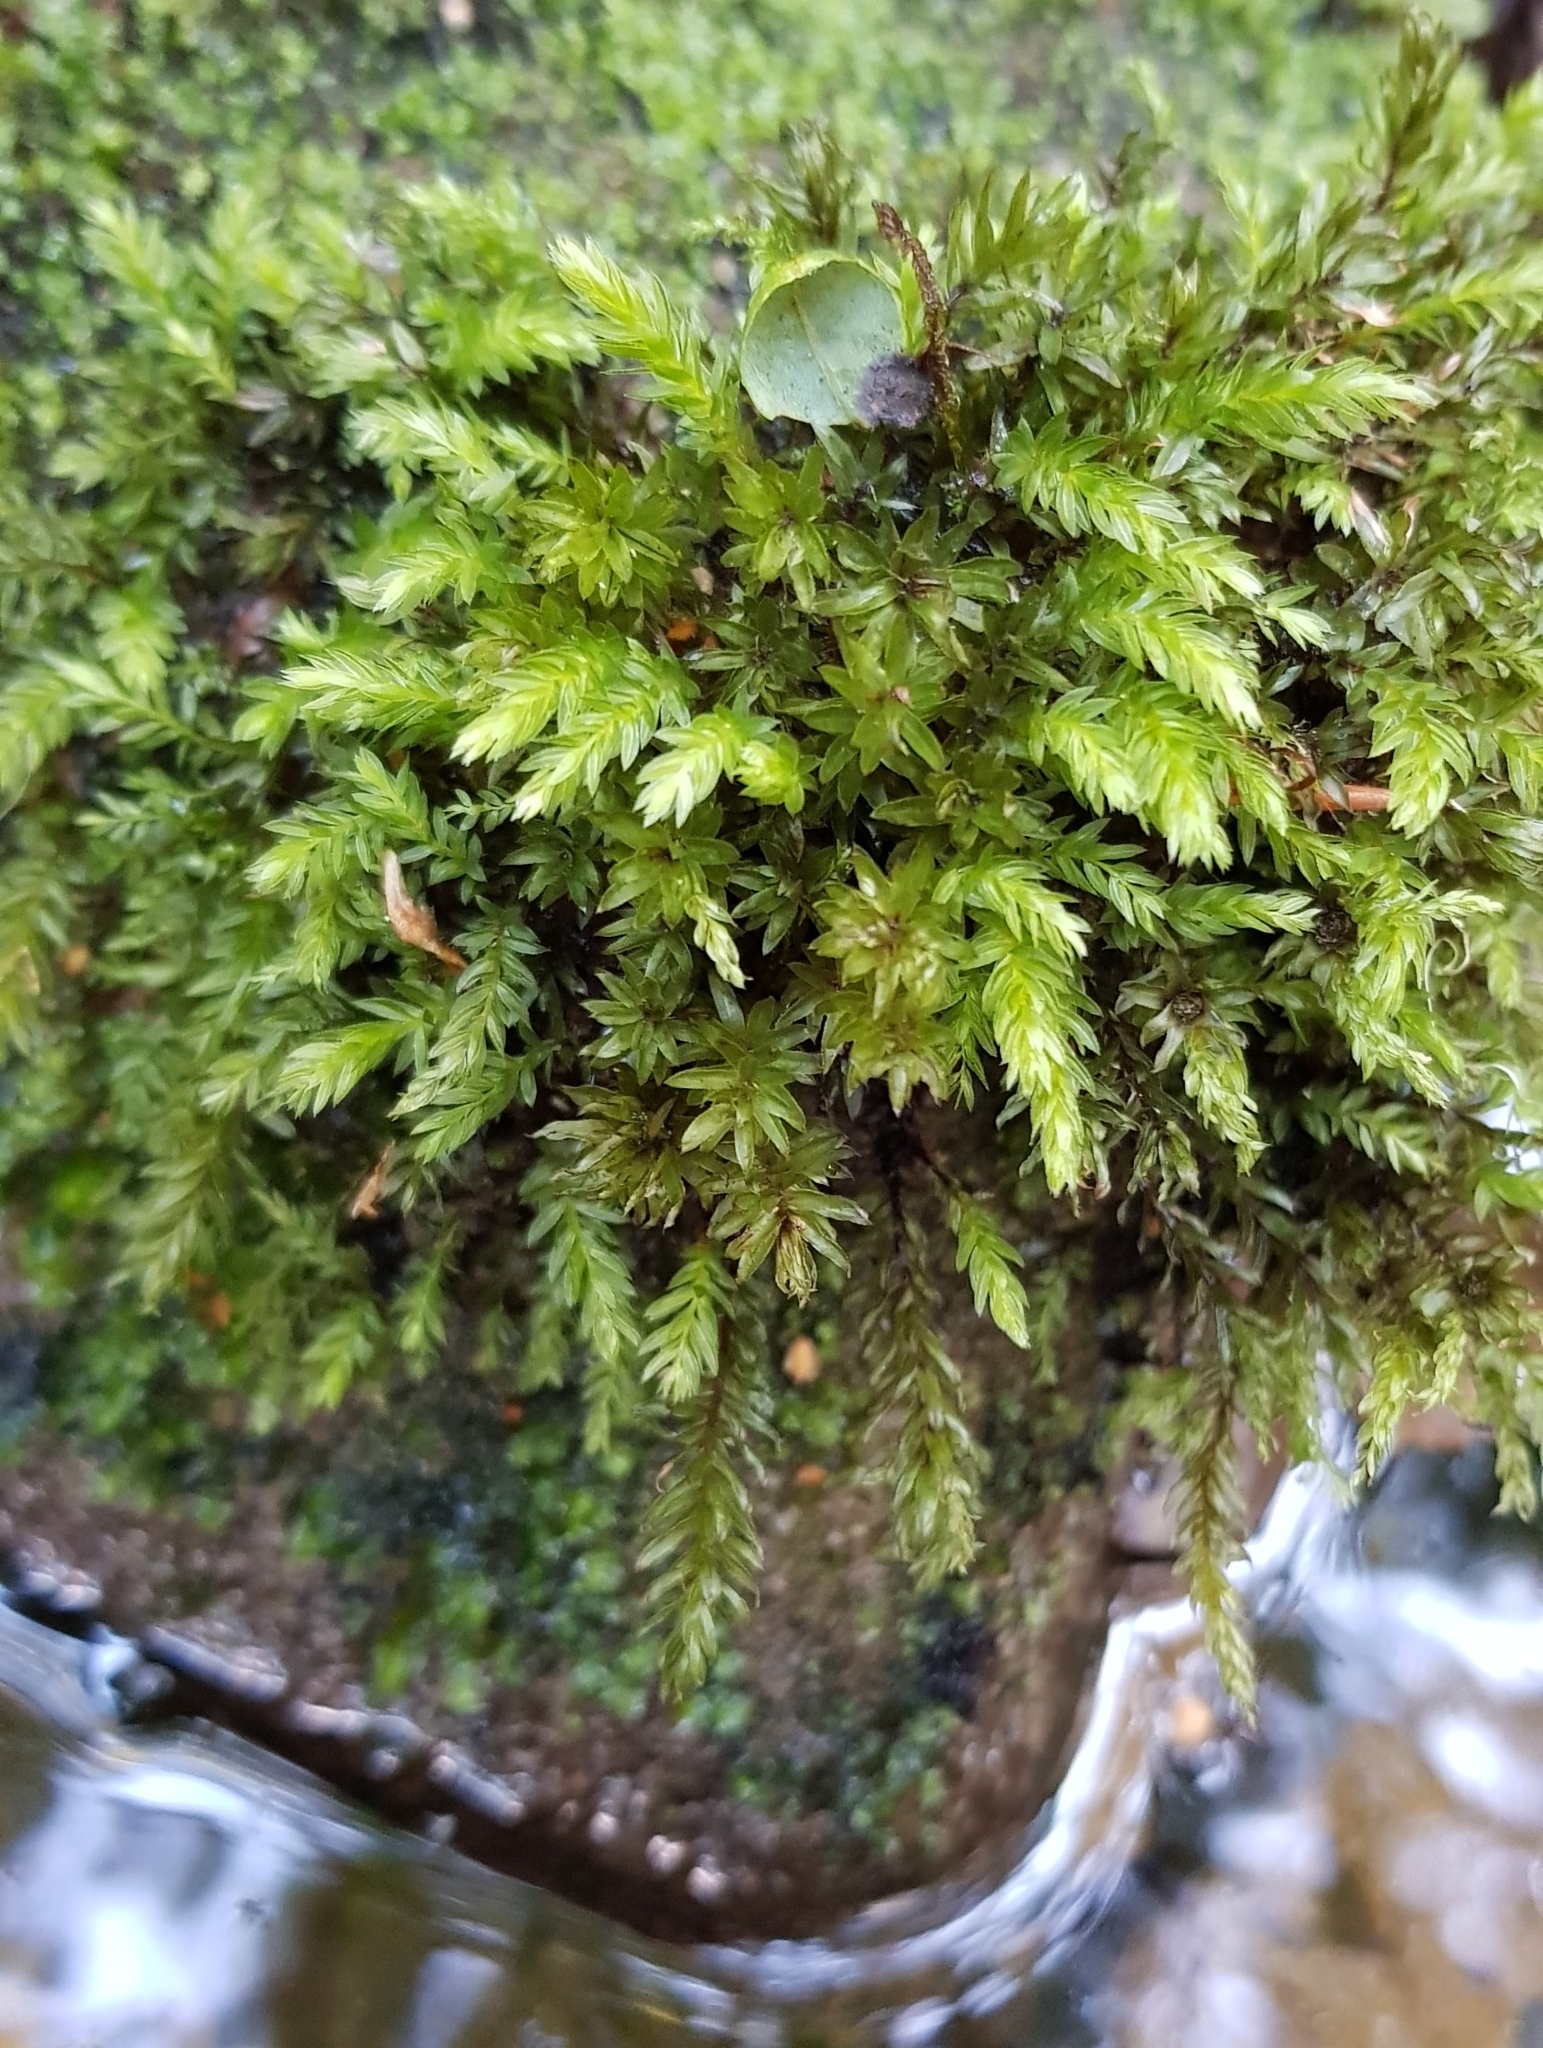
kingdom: Plantae
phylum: Bryophyta
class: Bryopsida
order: Bryales
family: Mniaceae
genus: Mnium
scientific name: Mnium hornum
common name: Swan's-neck leafy moss
